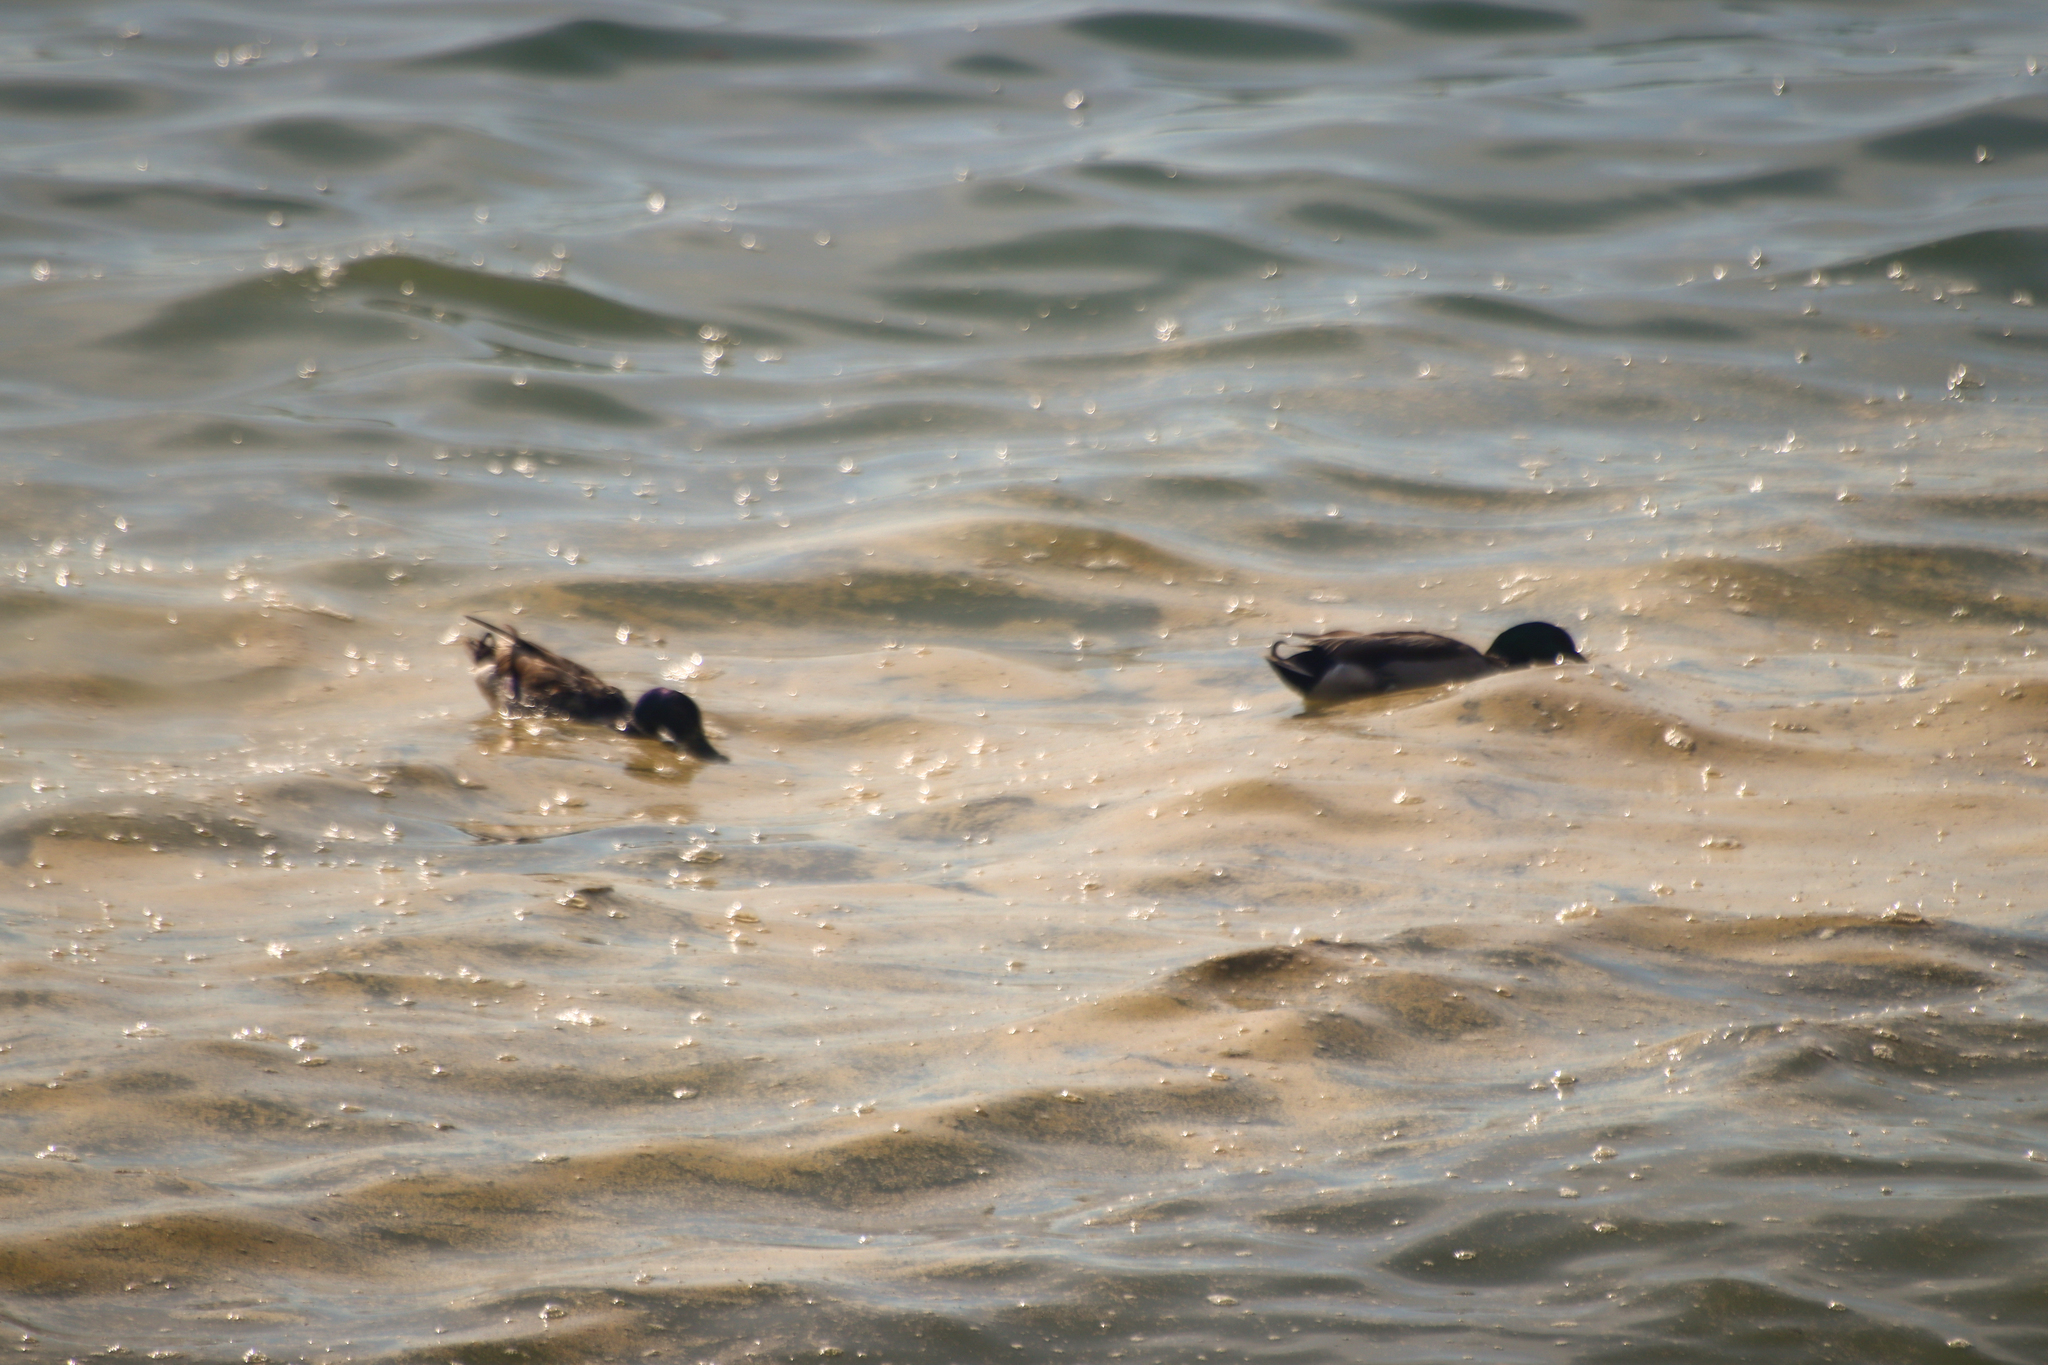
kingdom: Animalia
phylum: Chordata
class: Aves
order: Anseriformes
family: Anatidae
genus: Anas
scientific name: Anas platyrhynchos
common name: Mallard
